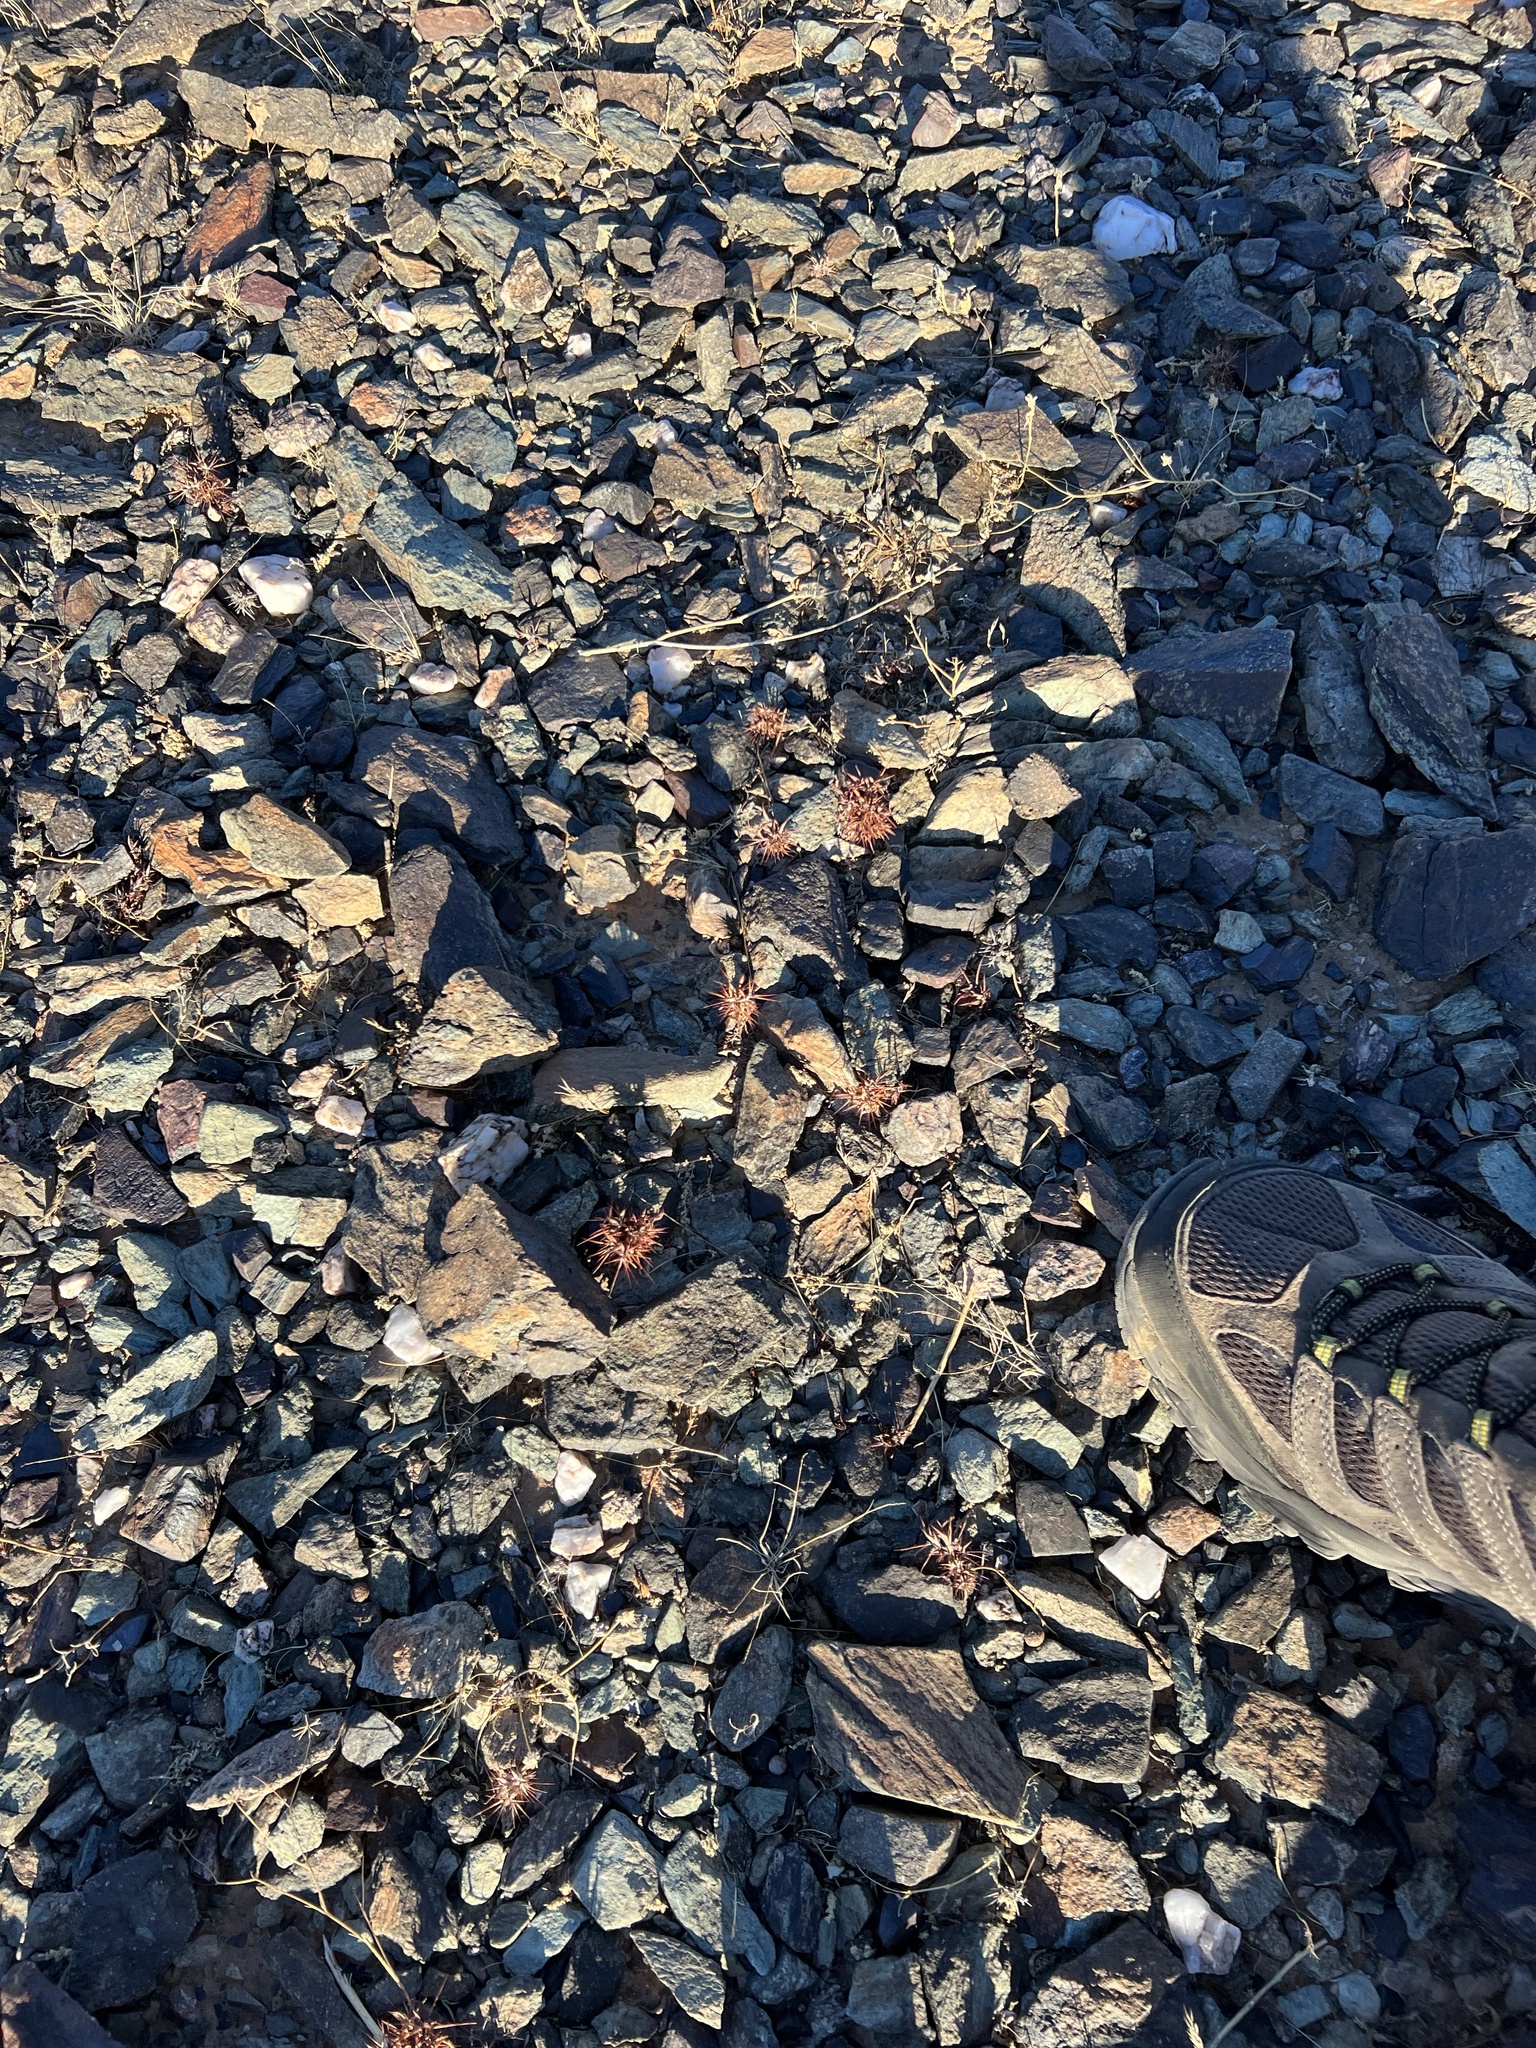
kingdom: Plantae
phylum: Tracheophyta
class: Magnoliopsida
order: Caryophyllales
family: Polygonaceae
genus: Chorizanthe
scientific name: Chorizanthe rigida
